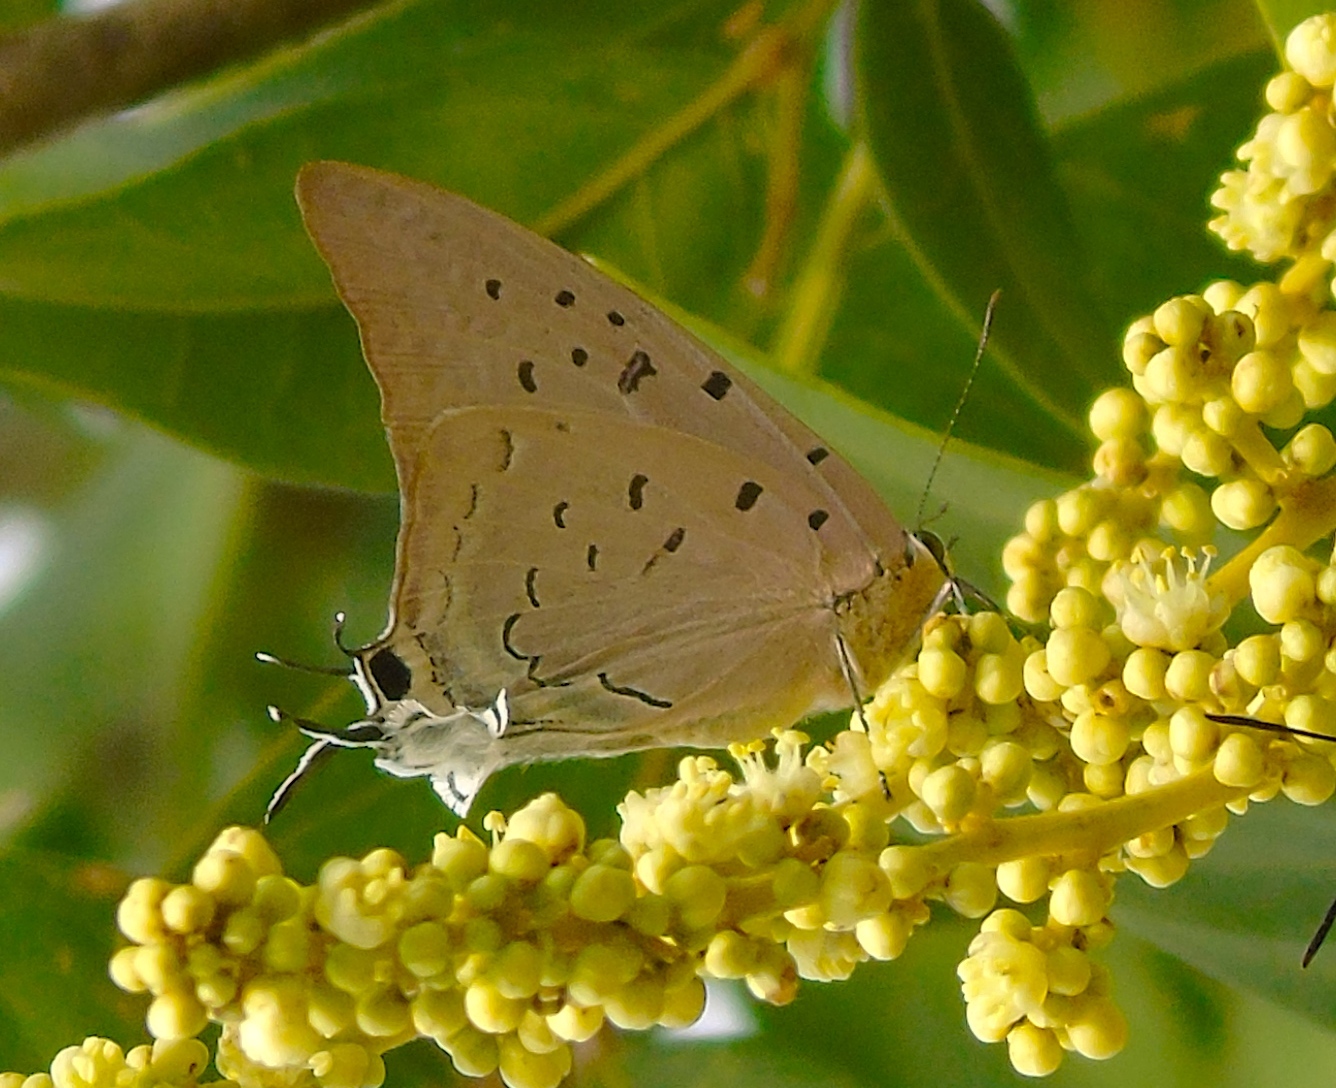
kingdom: Animalia
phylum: Arthropoda
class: Insecta
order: Lepidoptera
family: Lycaenidae
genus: Pseudolycaena
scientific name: Pseudolycaena damo
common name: Sky-blue hairstreak
